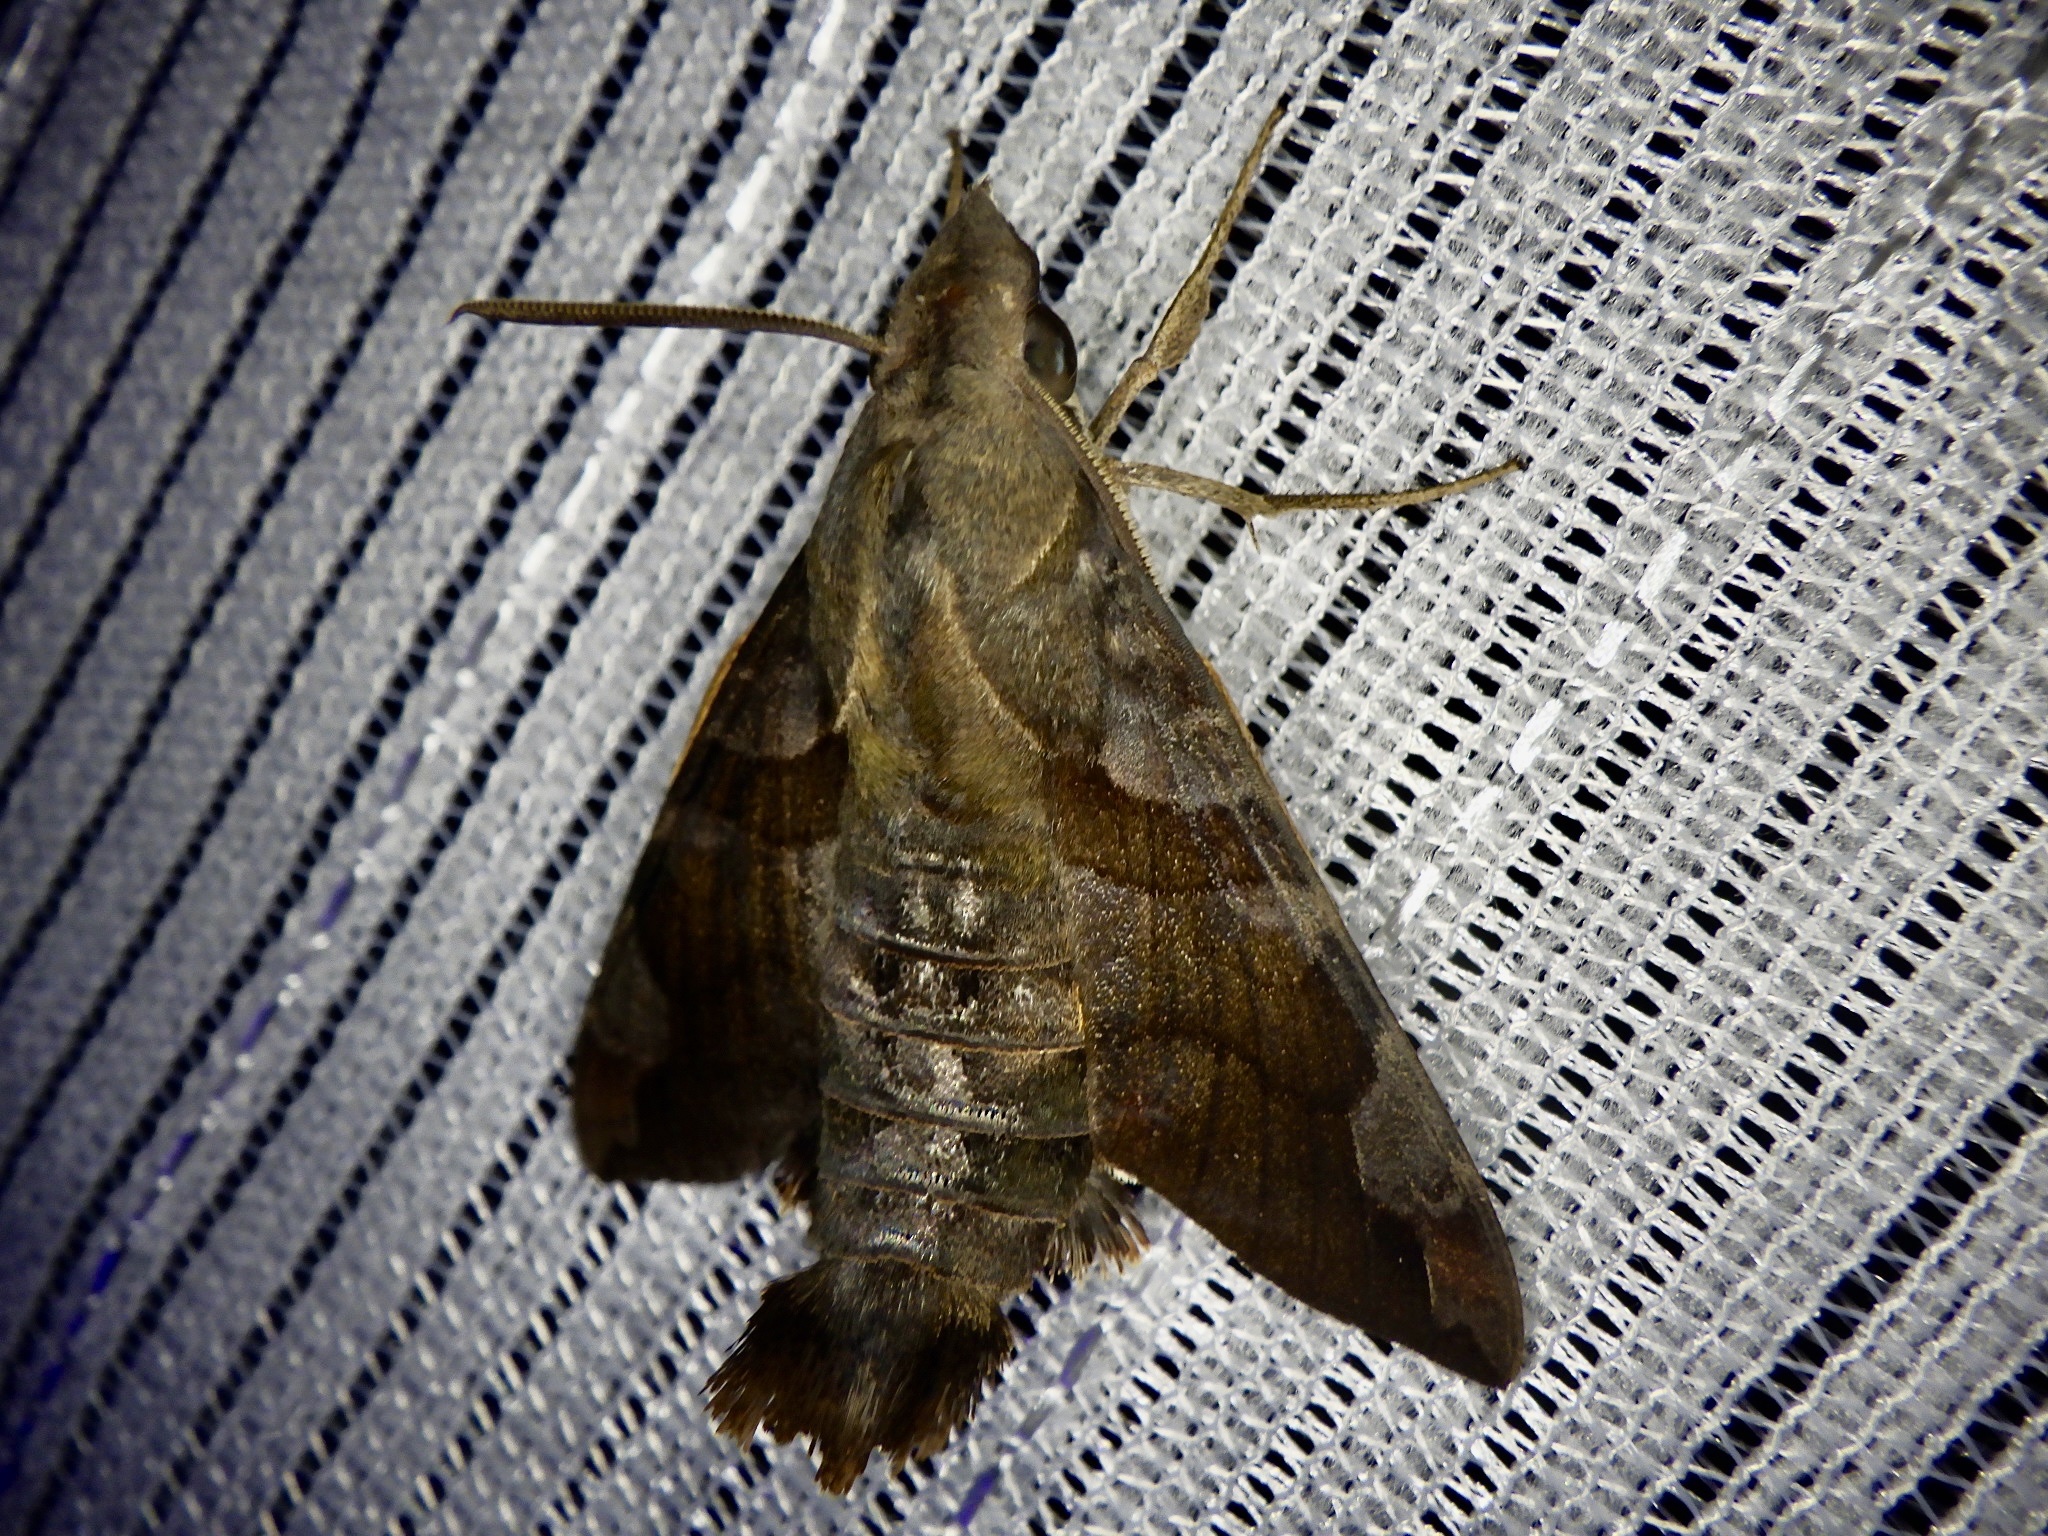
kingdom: Animalia
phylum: Arthropoda
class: Insecta
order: Lepidoptera
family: Sphingidae
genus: Macroglossum
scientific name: Macroglossum saga
